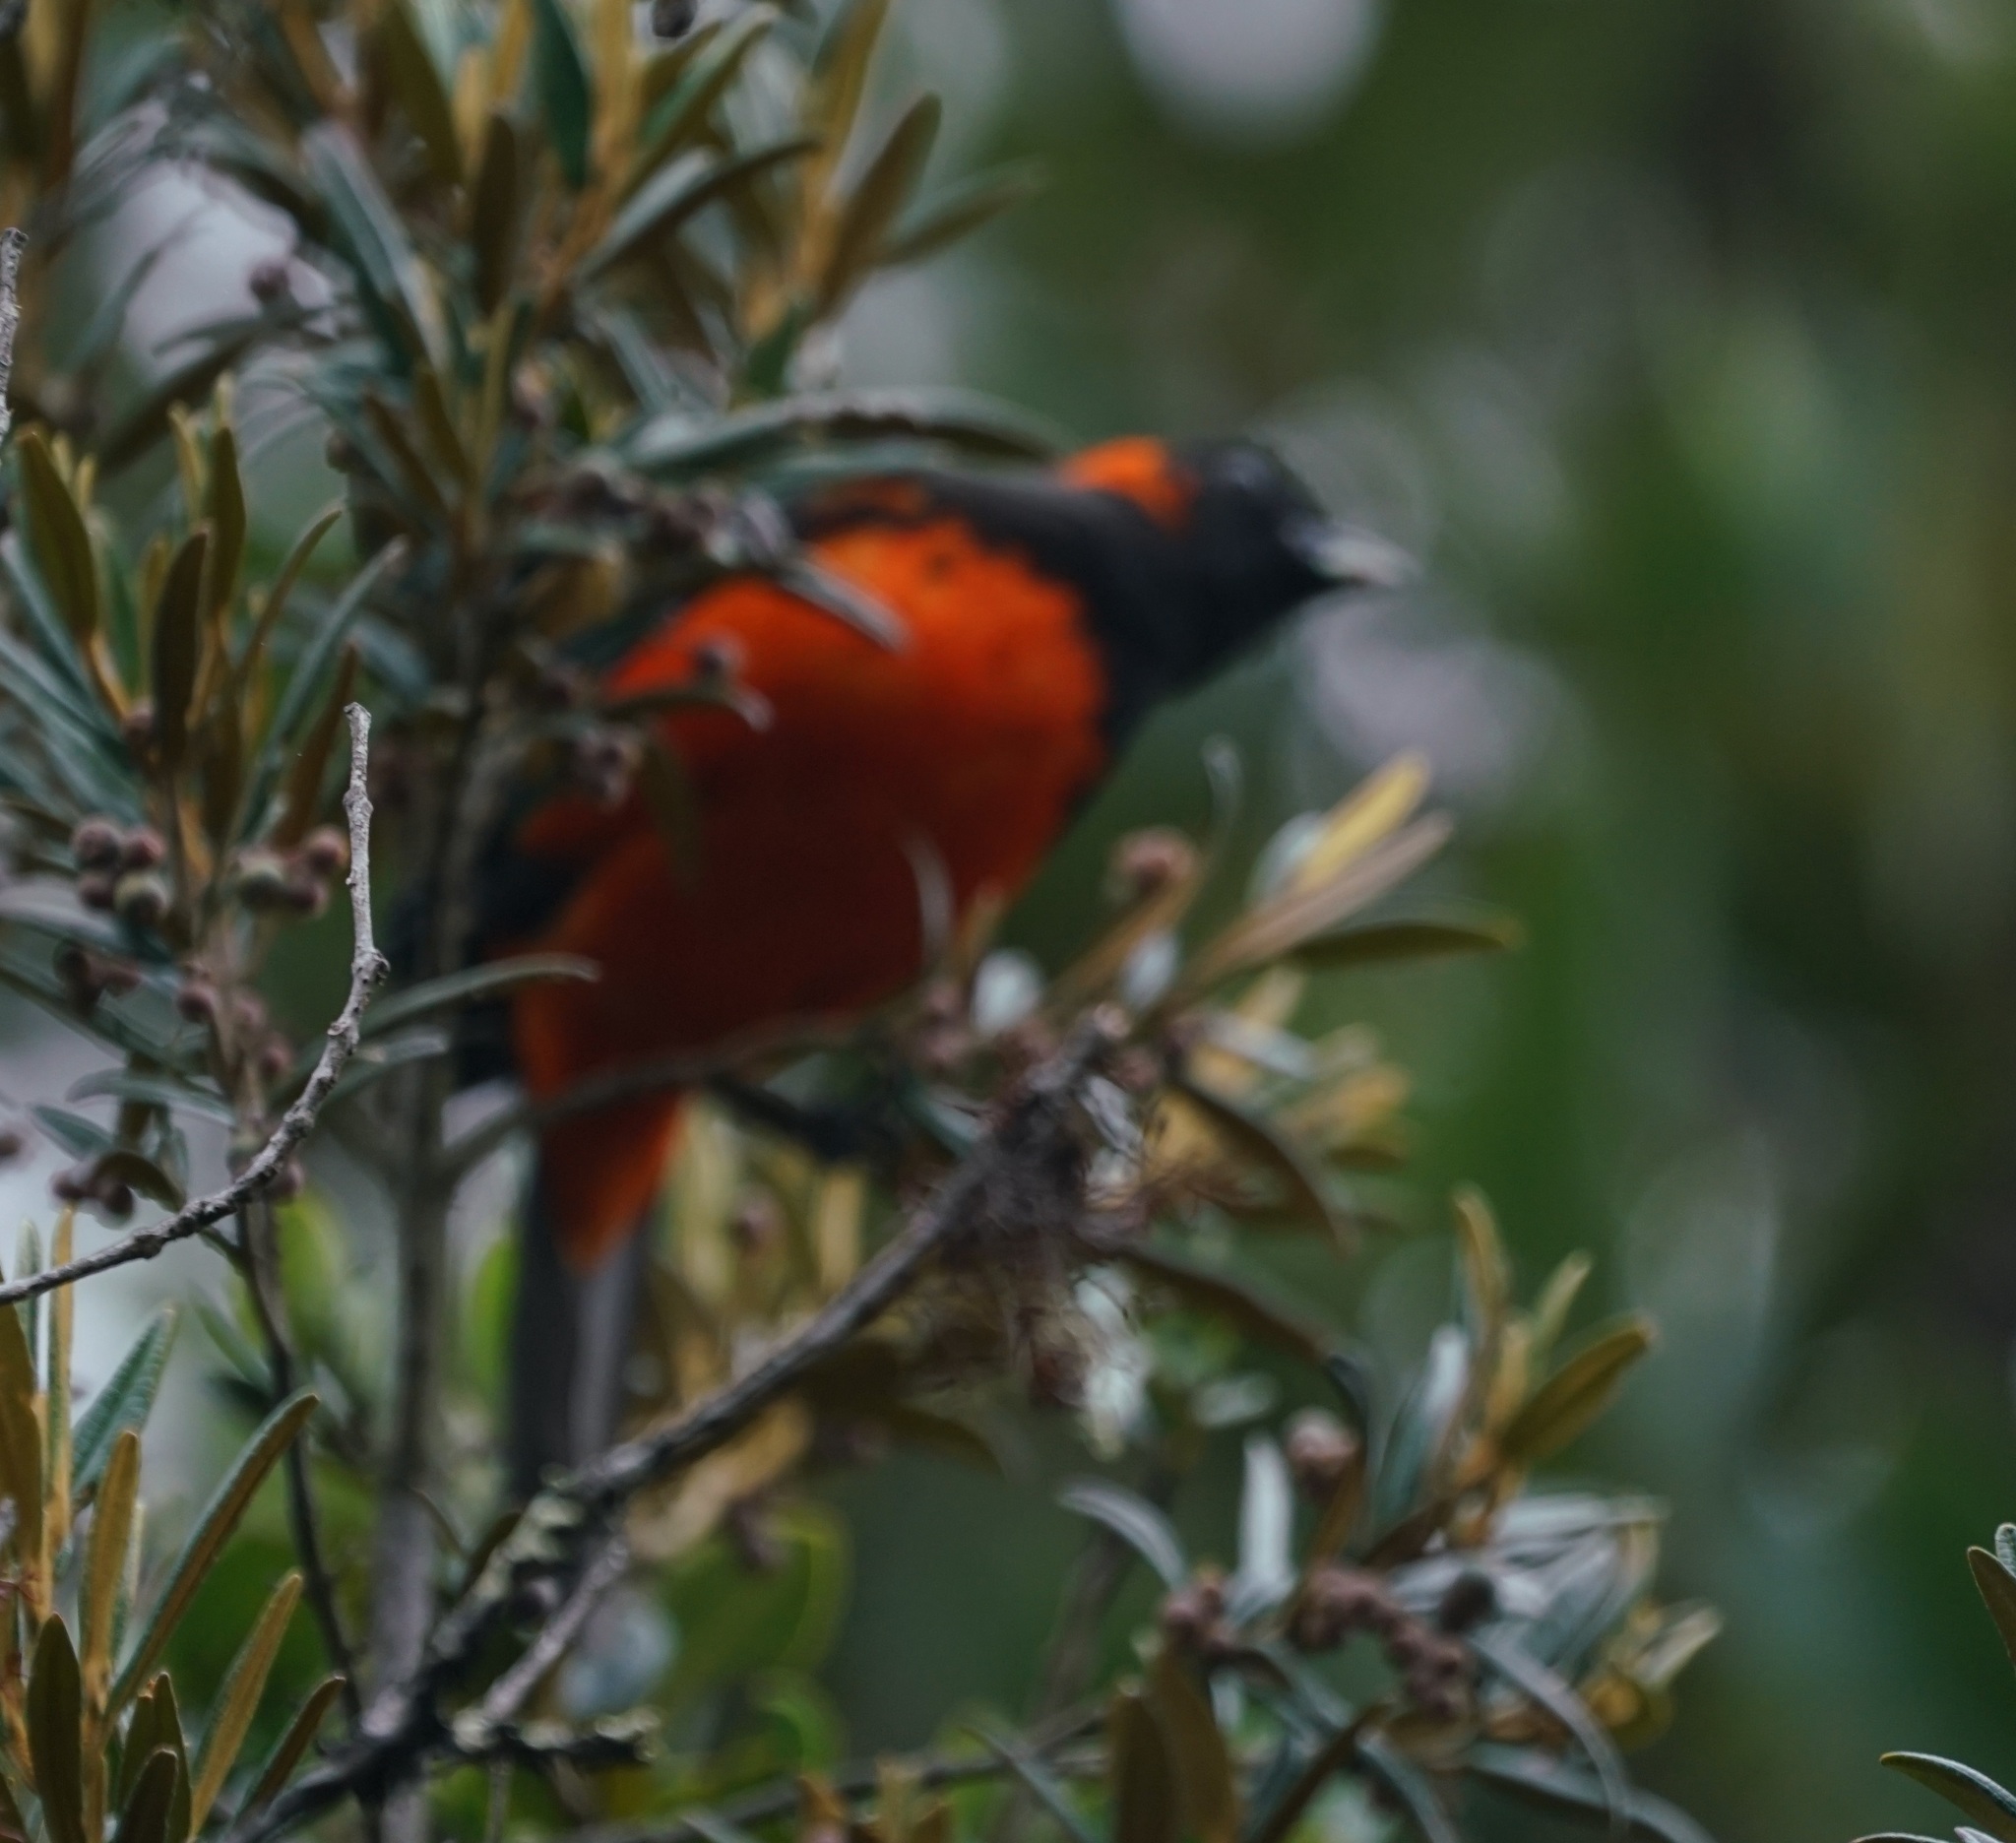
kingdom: Animalia
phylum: Chordata
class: Aves
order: Passeriformes
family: Thraupidae
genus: Anisognathus
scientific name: Anisognathus igniventris
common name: Scarlet-bellied mountain tanager
